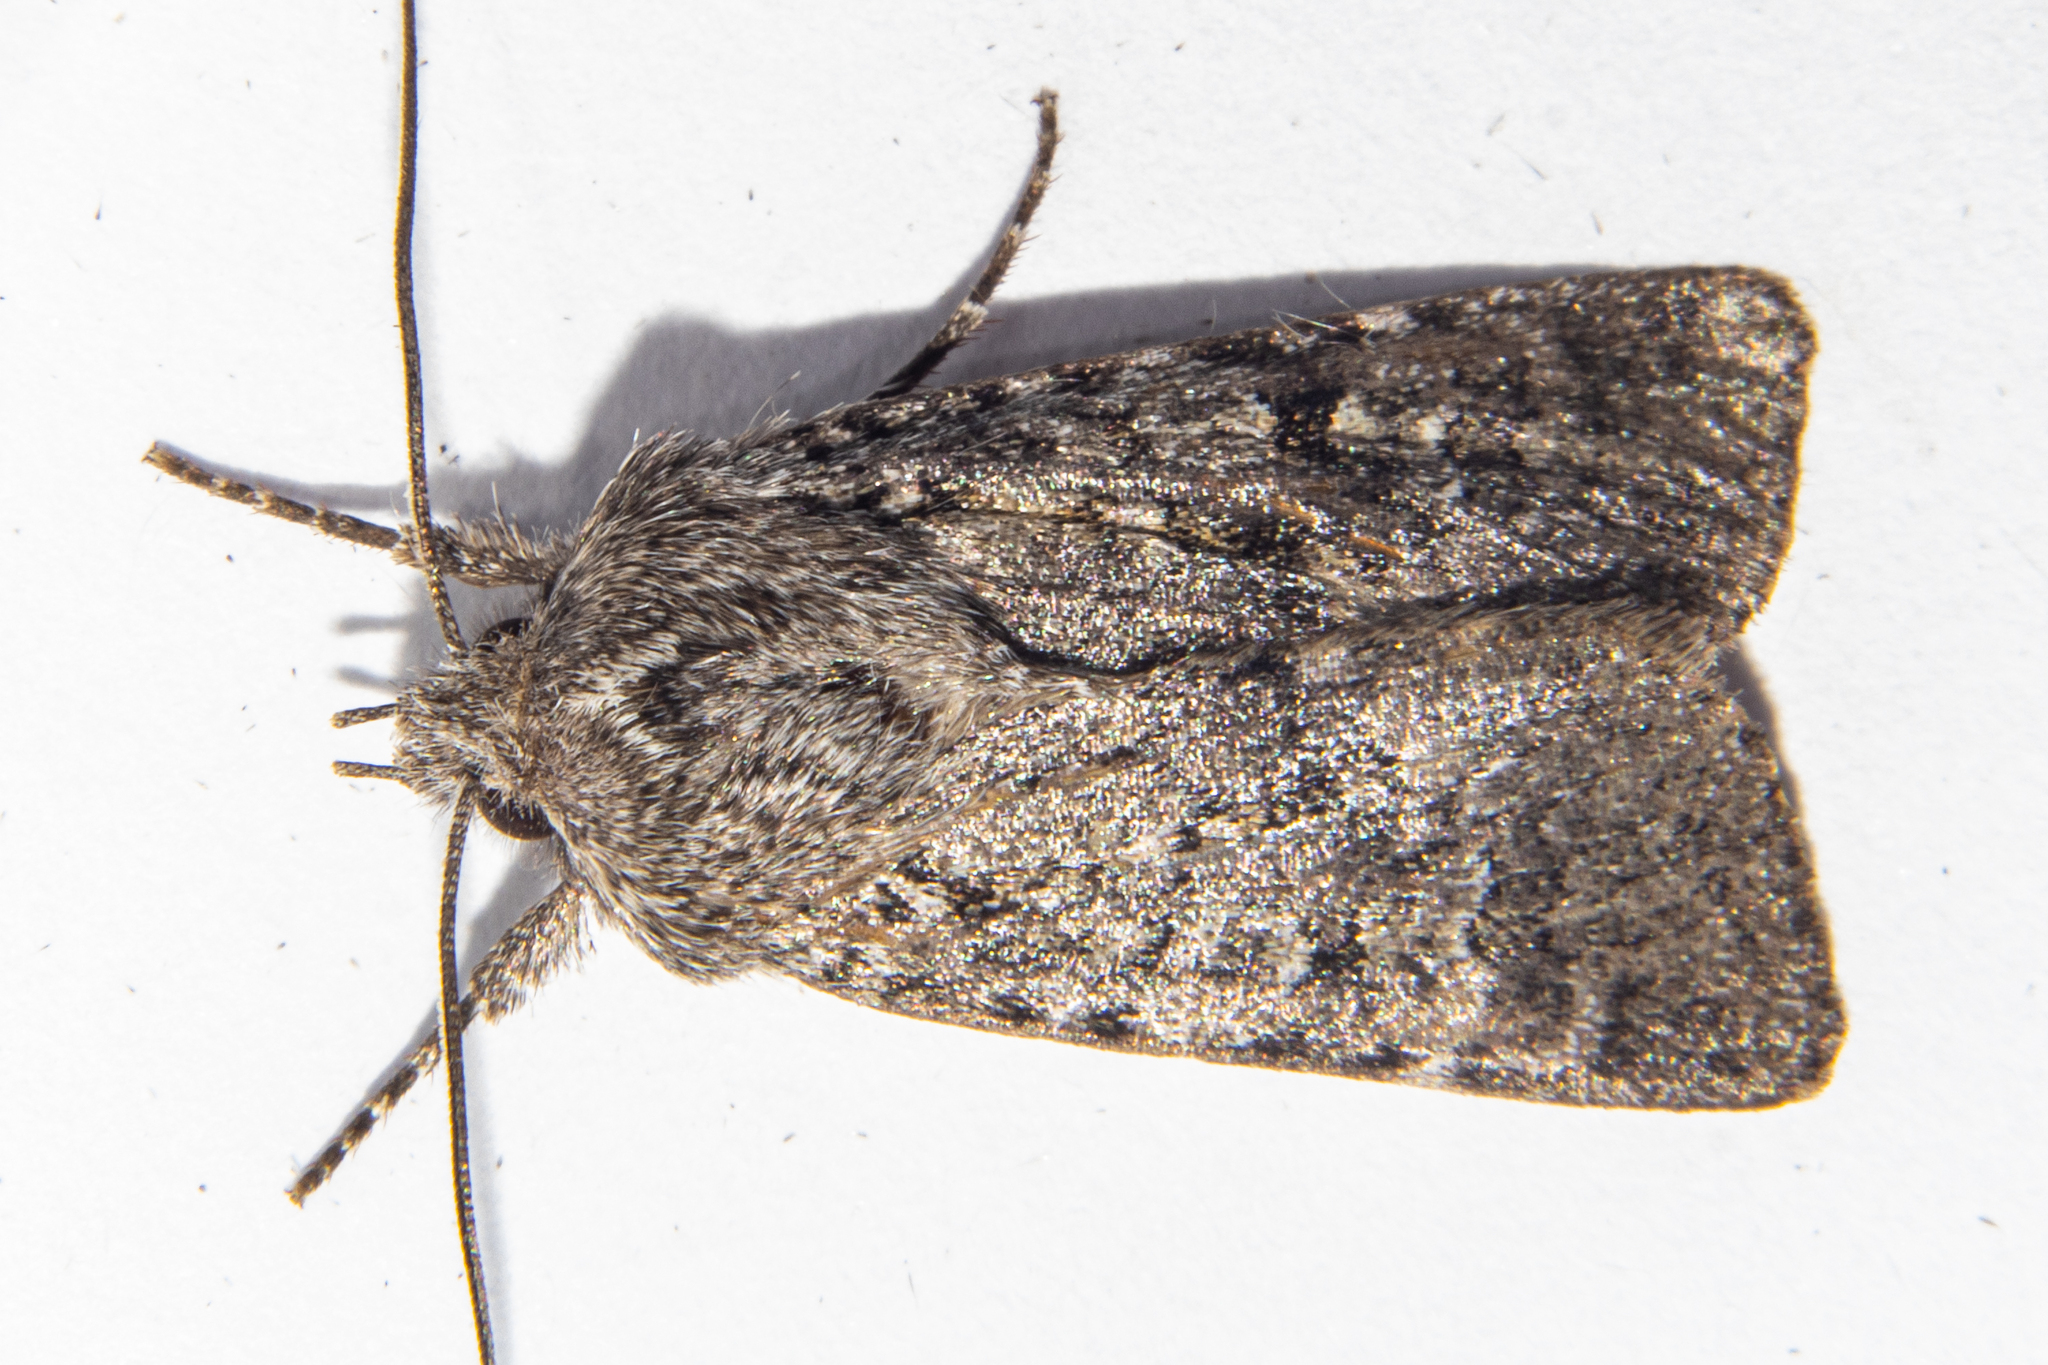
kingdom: Animalia
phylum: Arthropoda
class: Insecta
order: Lepidoptera
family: Noctuidae
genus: Physetica
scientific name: Physetica cucullina
